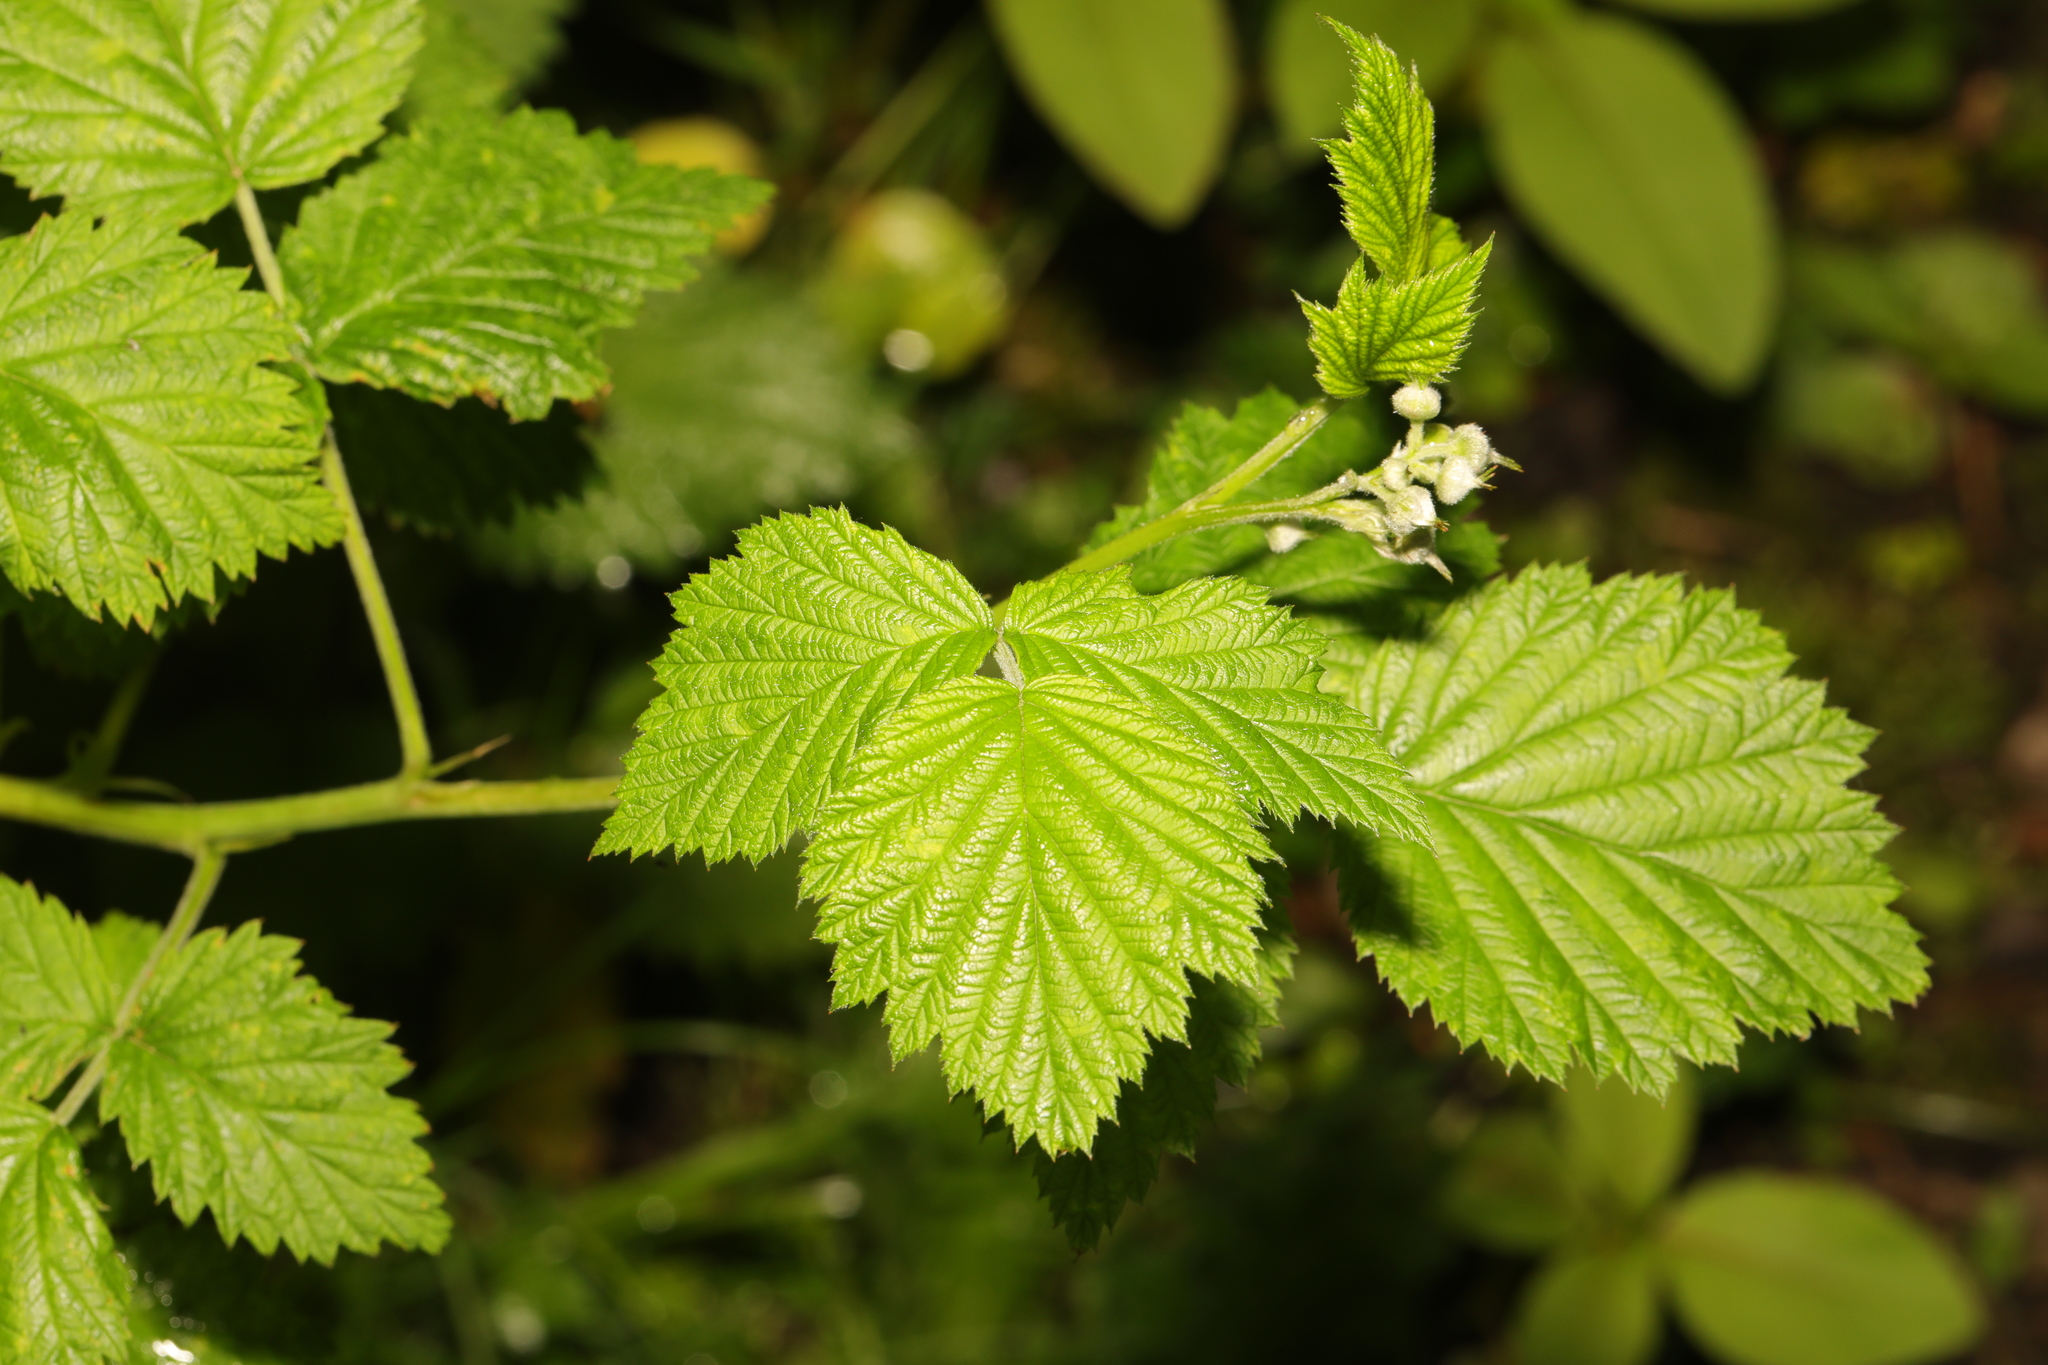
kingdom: Plantae
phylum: Tracheophyta
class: Magnoliopsida
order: Rosales
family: Rosaceae
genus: Rubus
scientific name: Rubus idaeus
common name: Raspberry
